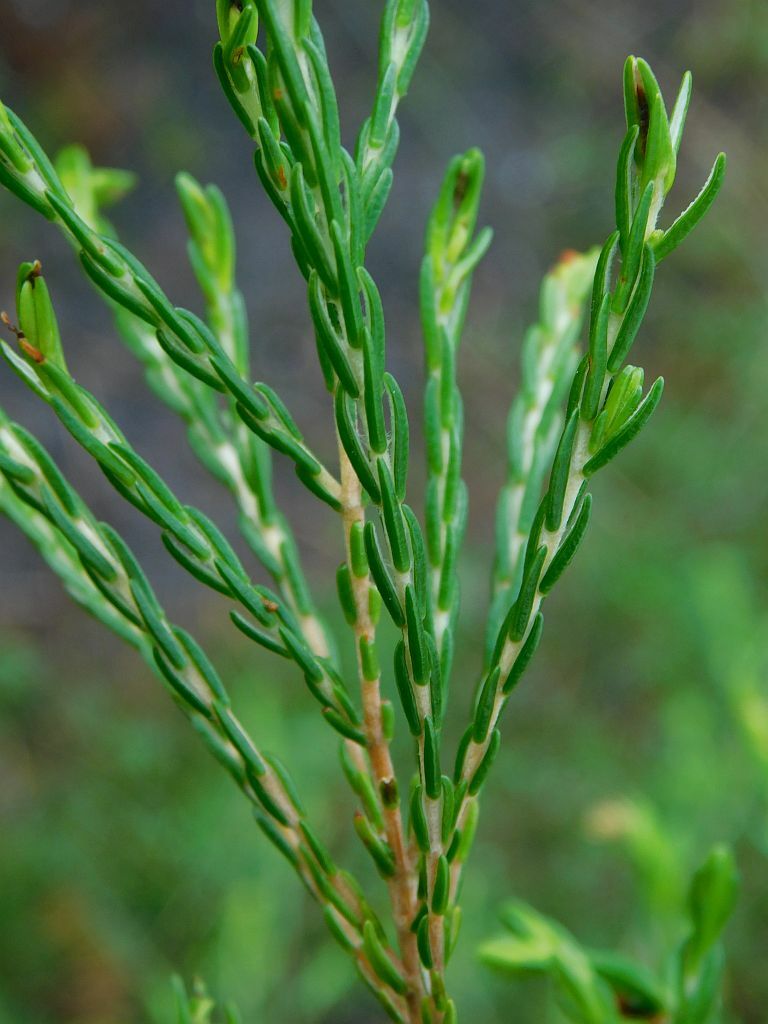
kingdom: Plantae
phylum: Tracheophyta
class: Magnoliopsida
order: Malvales
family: Thymelaeaceae
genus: Passerina
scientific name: Passerina corymbosa
